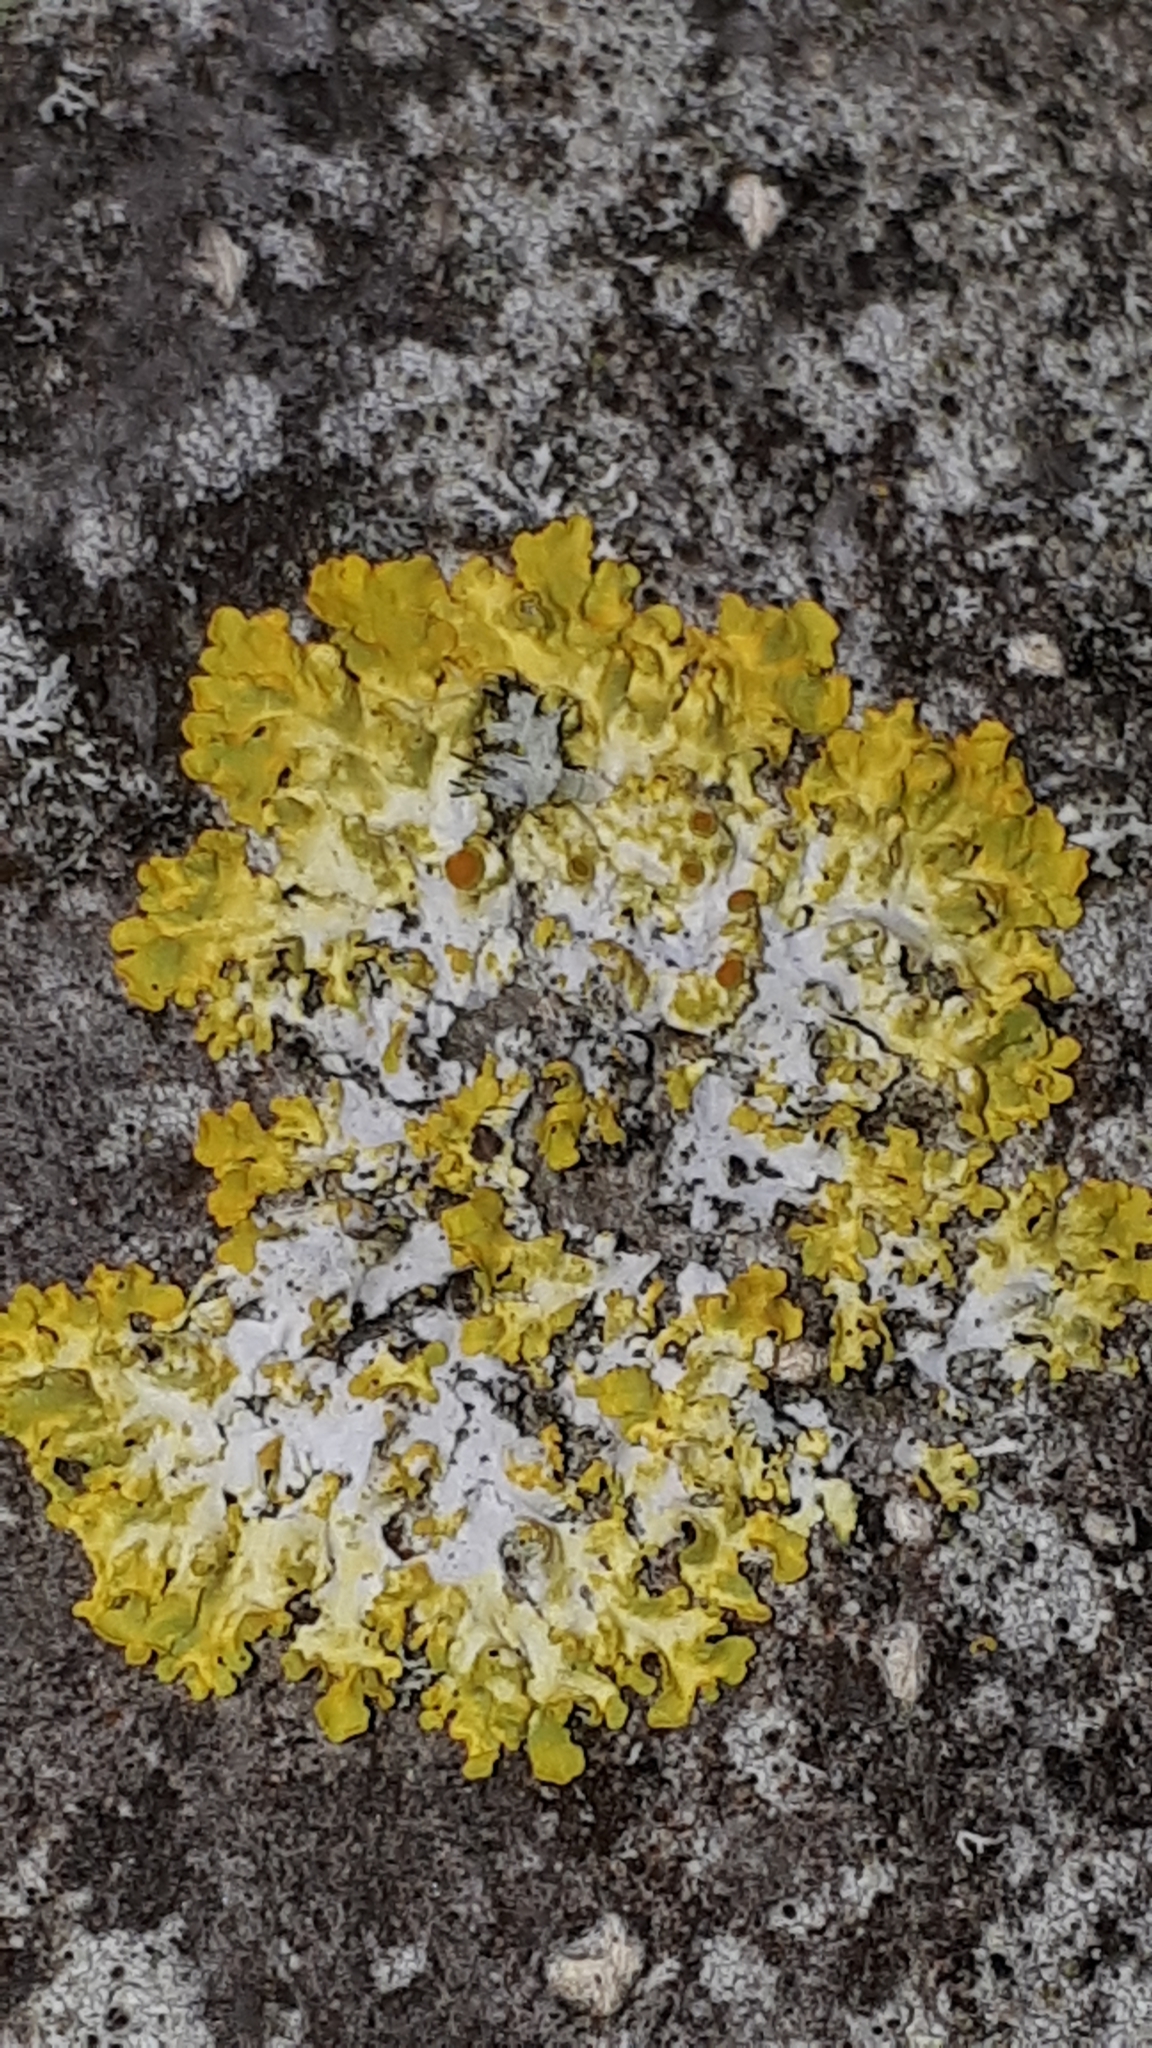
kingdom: Fungi
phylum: Ascomycota
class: Lecanoromycetes
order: Teloschistales
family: Teloschistaceae
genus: Xanthoria
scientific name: Xanthoria parietina
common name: Common orange lichen
